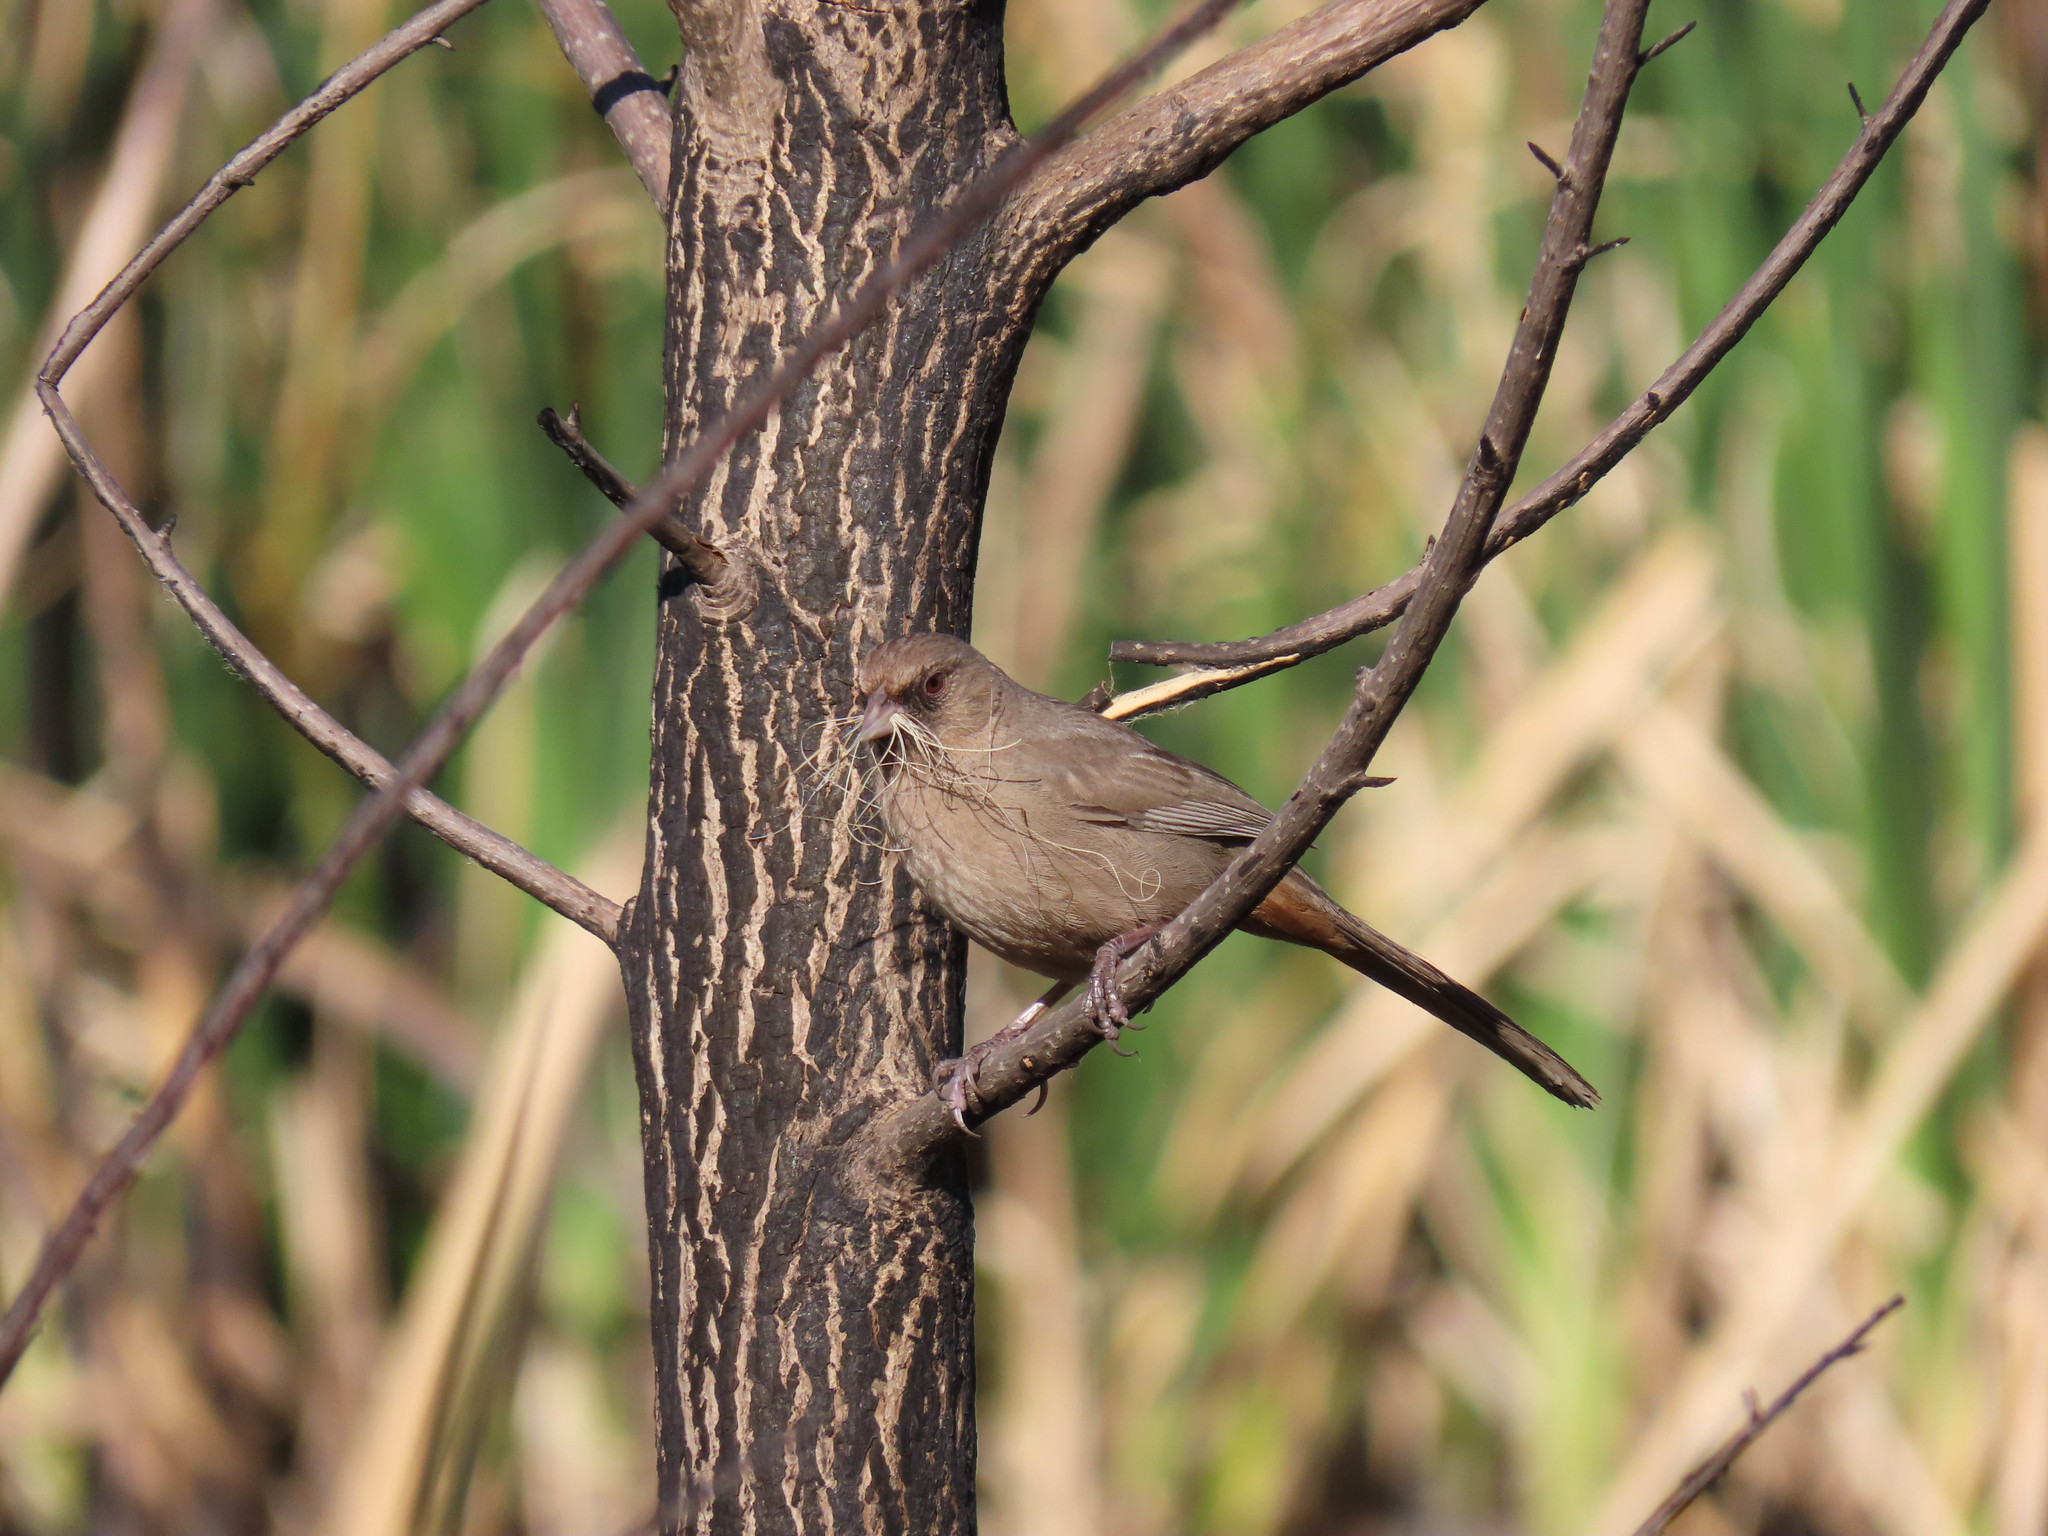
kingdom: Animalia
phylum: Chordata
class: Aves
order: Passeriformes
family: Passerellidae
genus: Melozone
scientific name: Melozone aberti
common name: Abert's towhee
